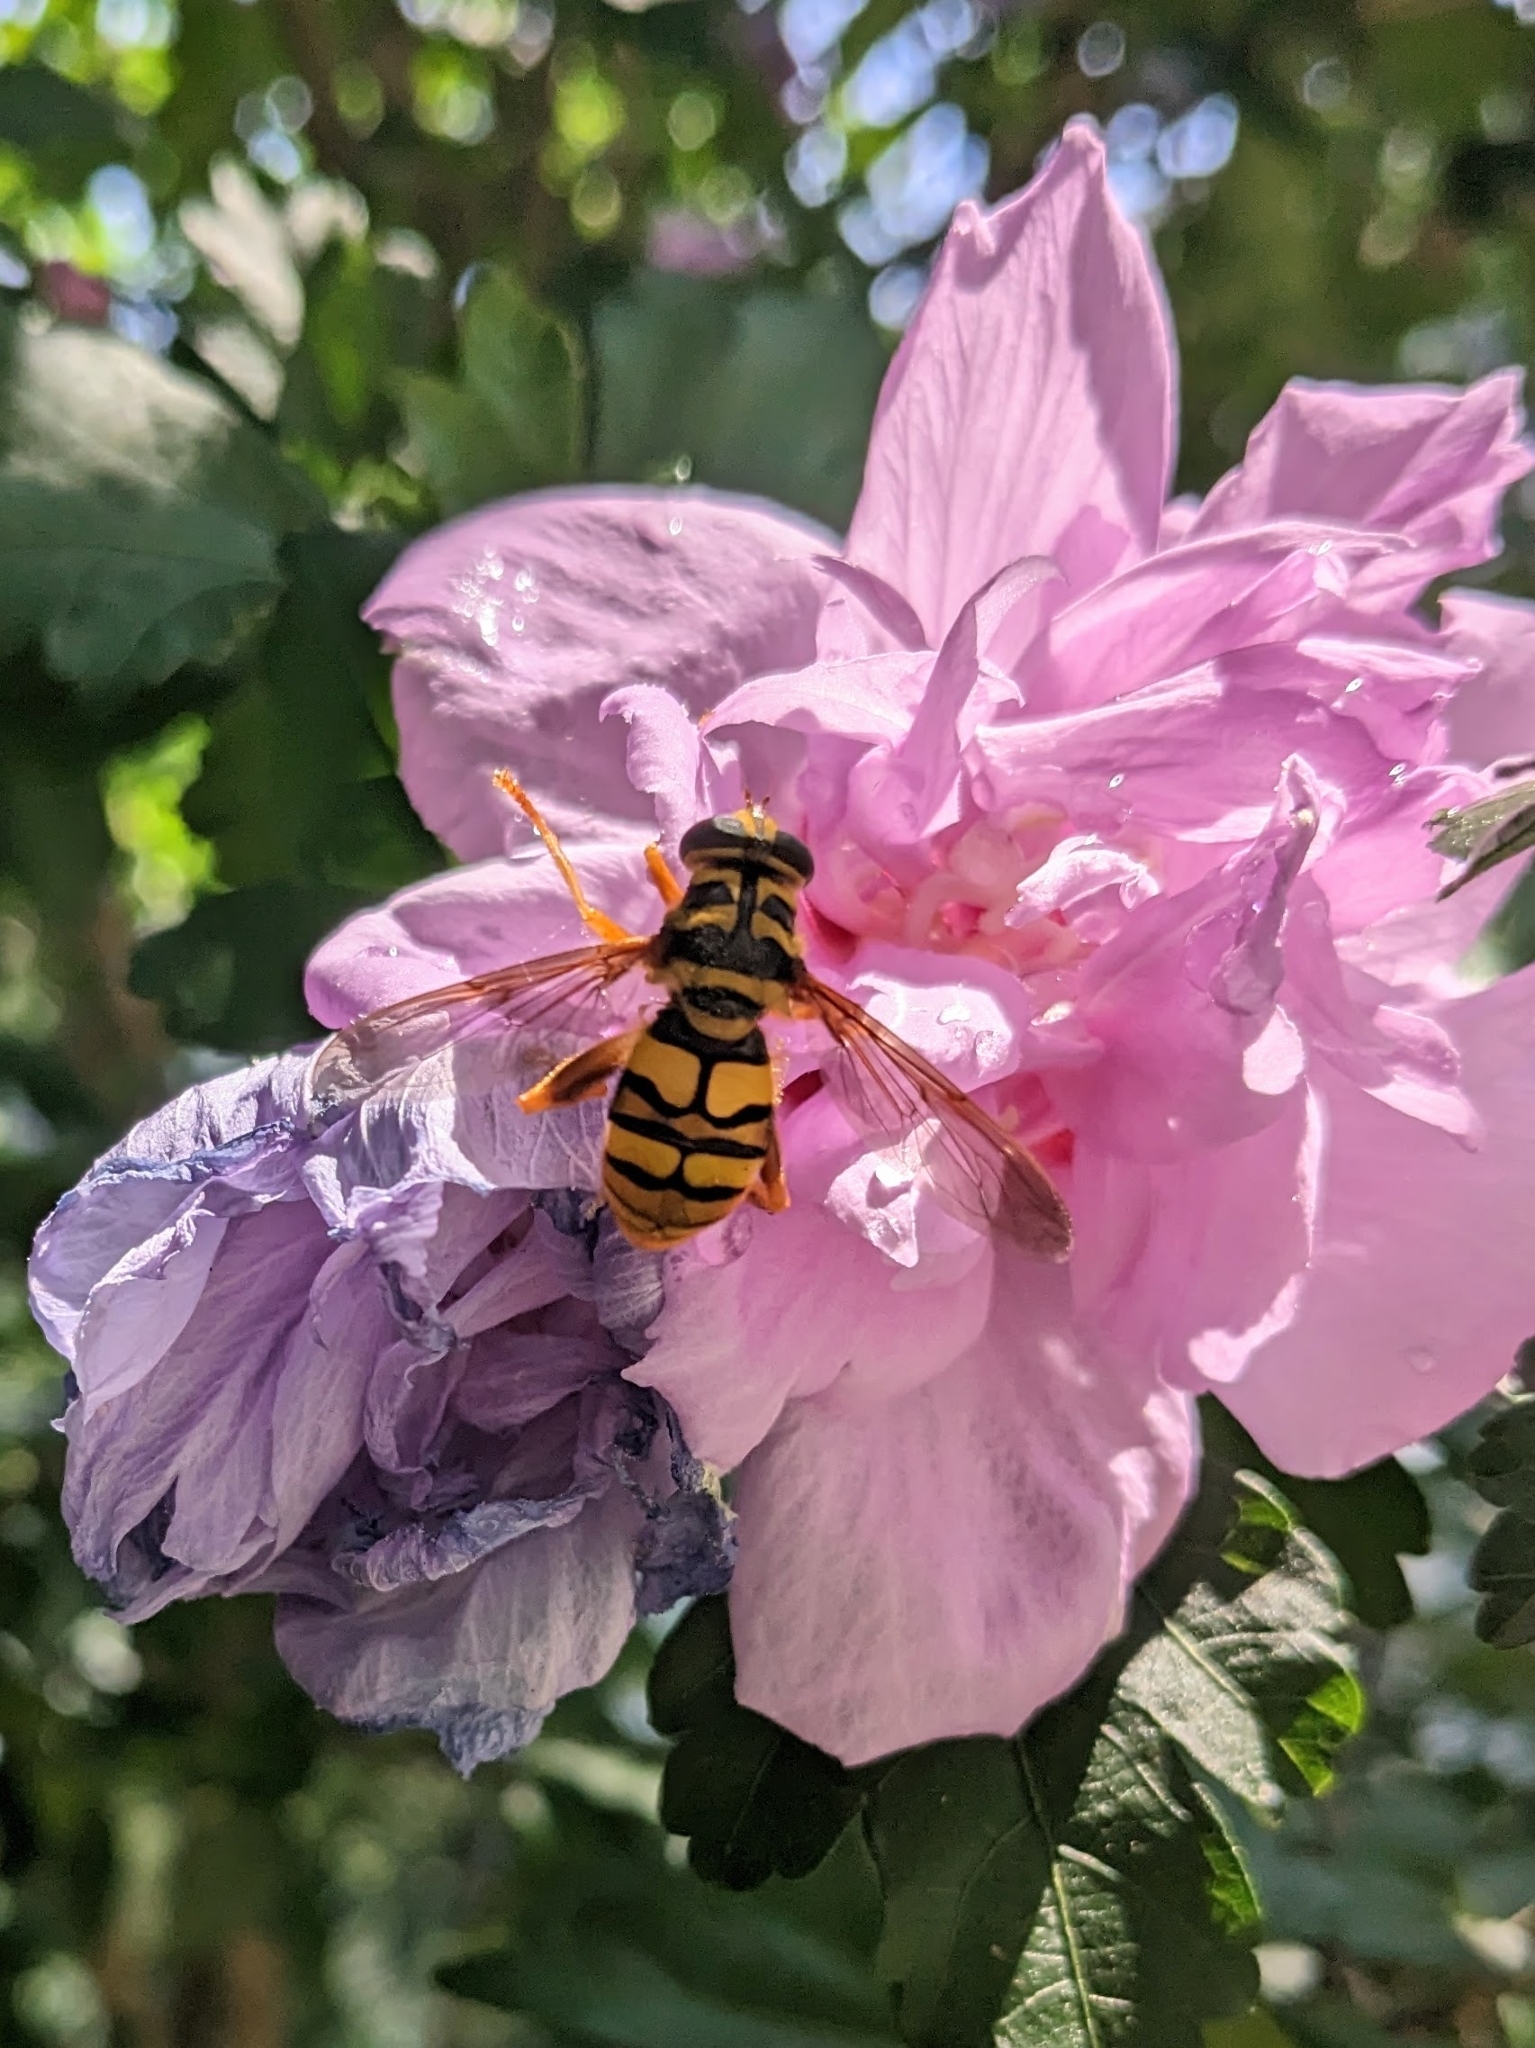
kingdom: Animalia
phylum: Arthropoda
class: Insecta
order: Diptera
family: Syrphidae
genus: Milesia
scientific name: Milesia virginiensis
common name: Virginia giant
